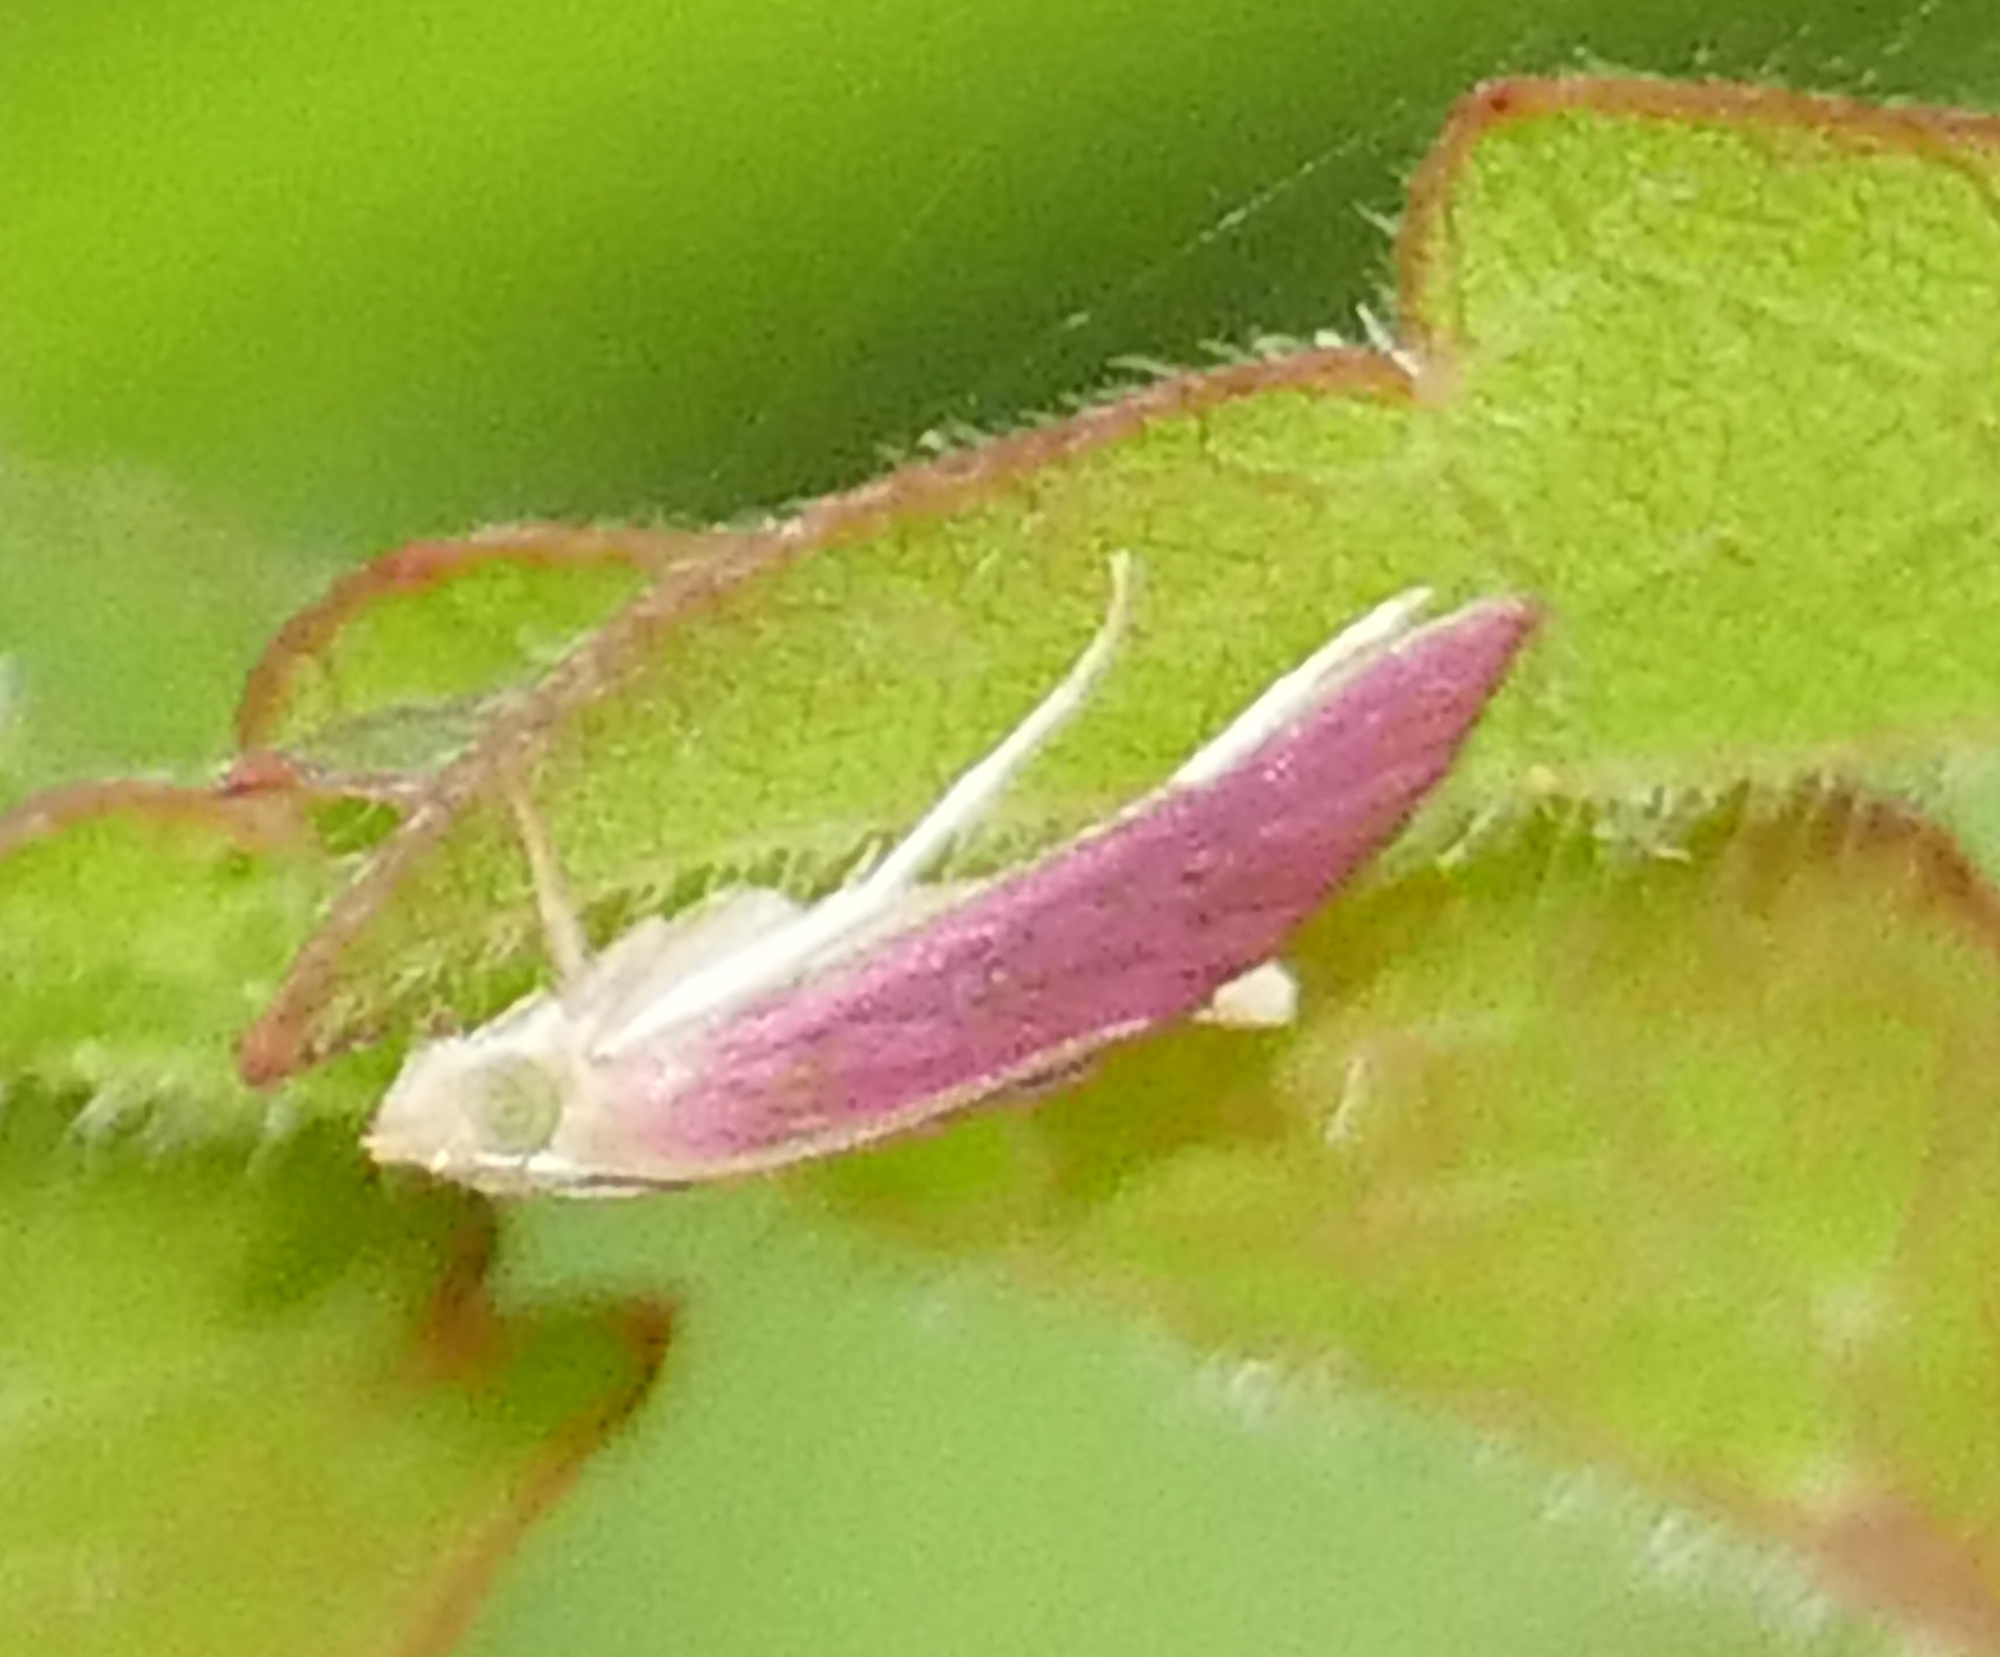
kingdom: Animalia
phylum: Arthropoda
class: Insecta
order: Lepidoptera
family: Crambidae
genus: Pyrausta
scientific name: Pyrausta inornatalis
